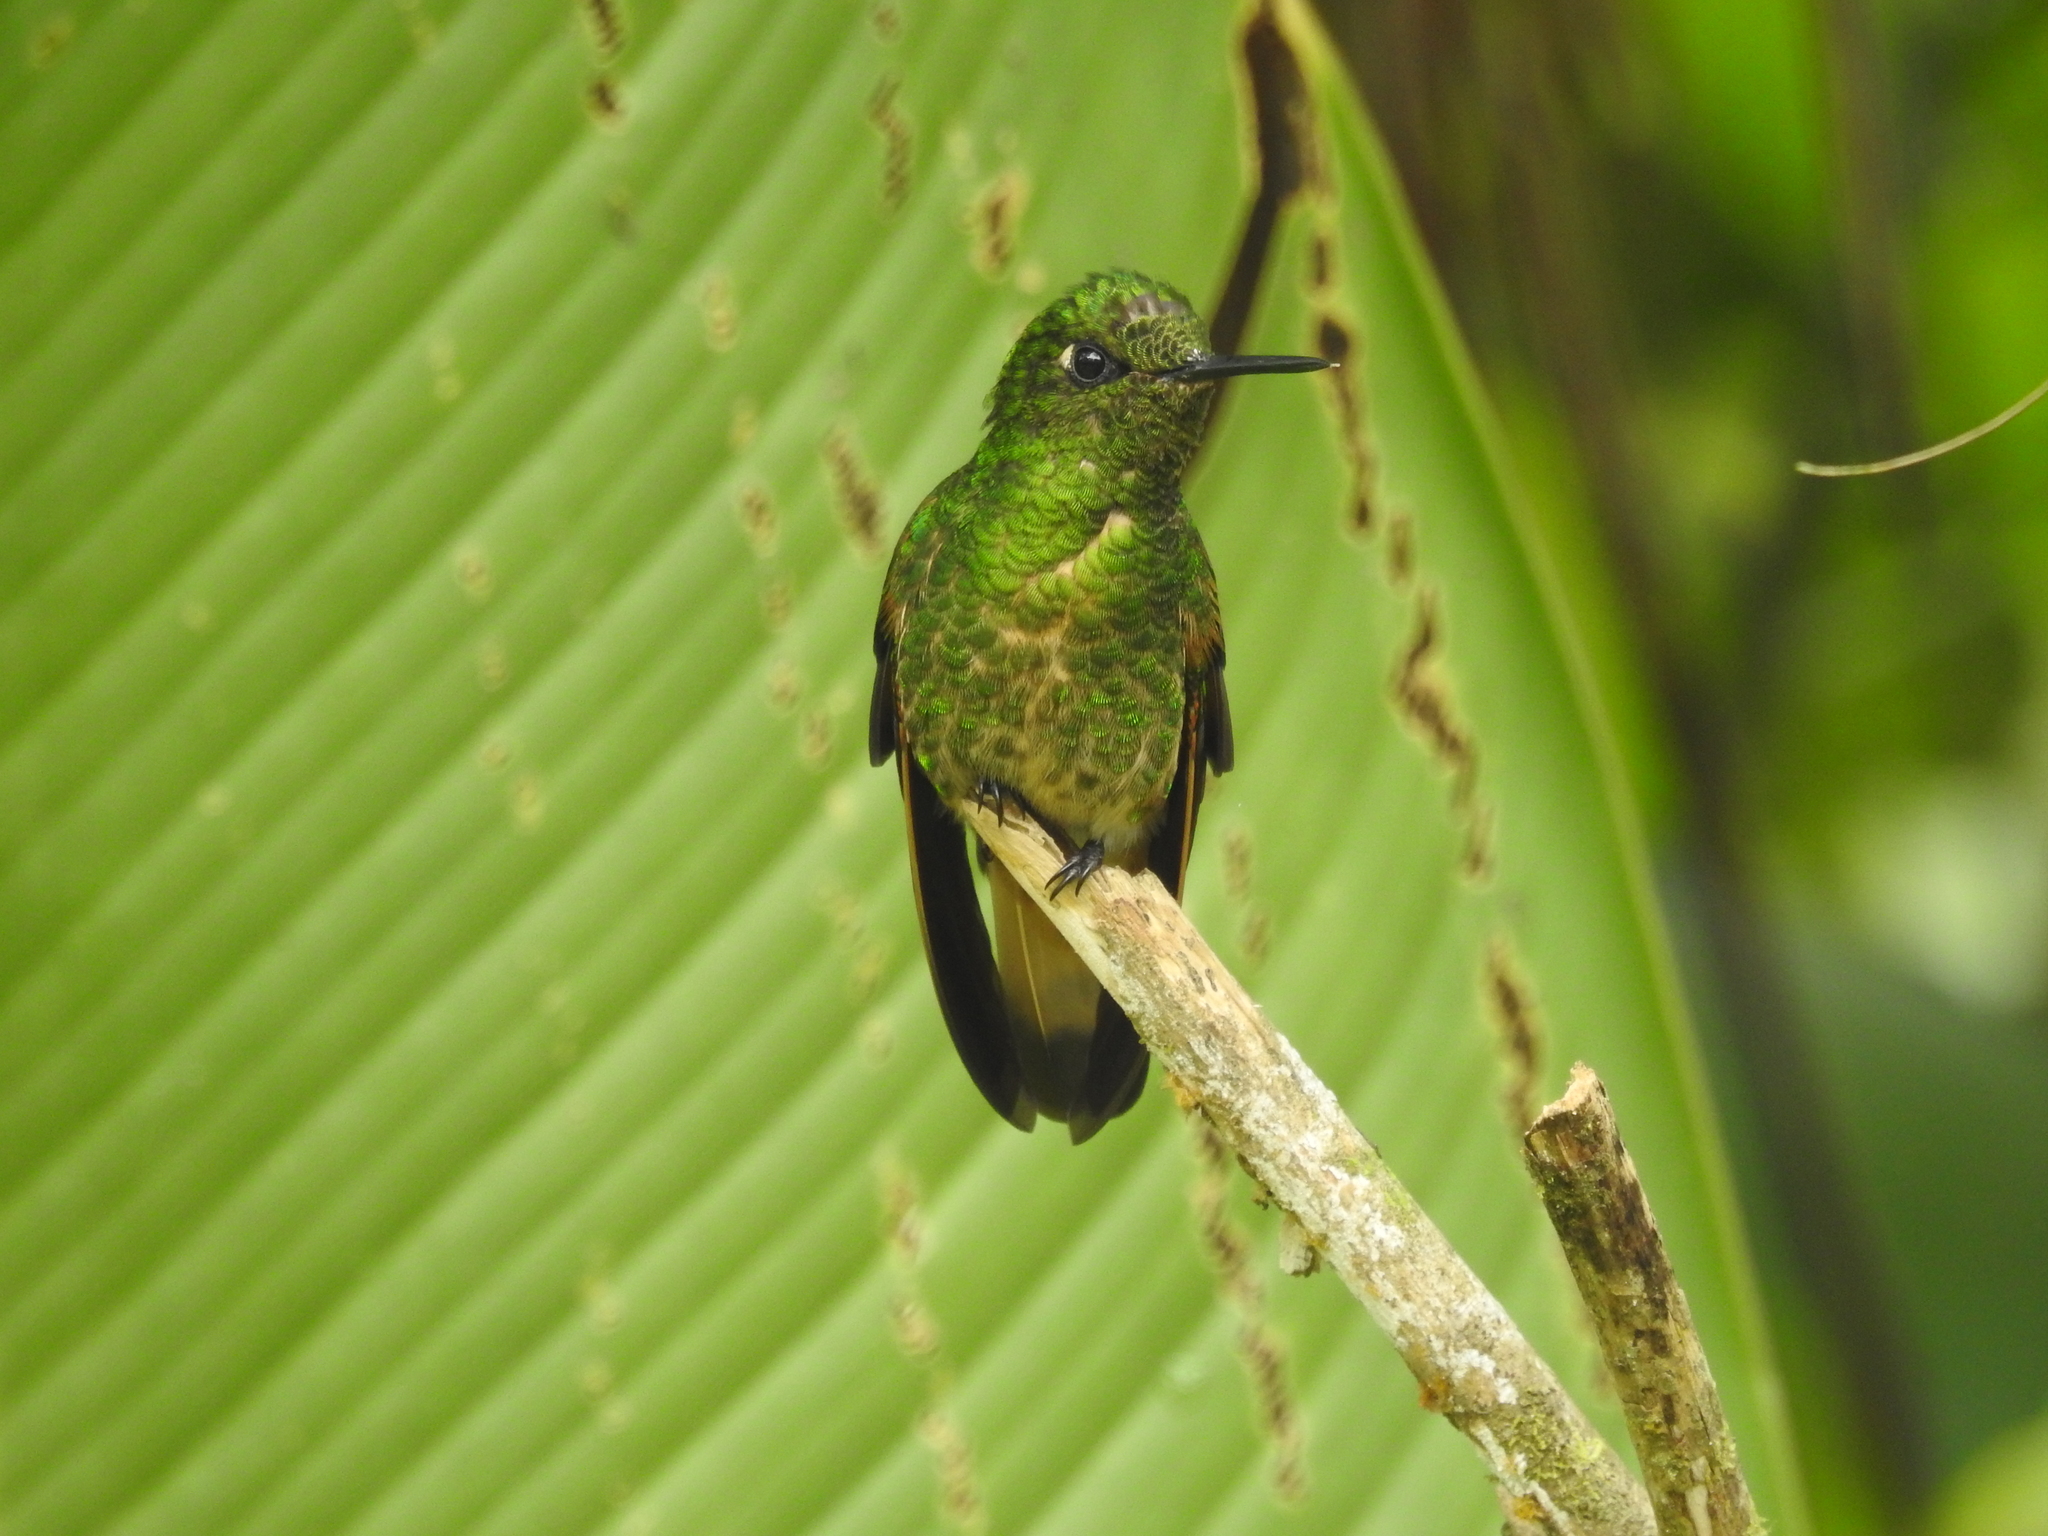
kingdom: Animalia
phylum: Chordata
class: Aves
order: Apodiformes
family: Trochilidae
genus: Boissonneaua
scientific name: Boissonneaua flavescens
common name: Buff-tailed coronet
